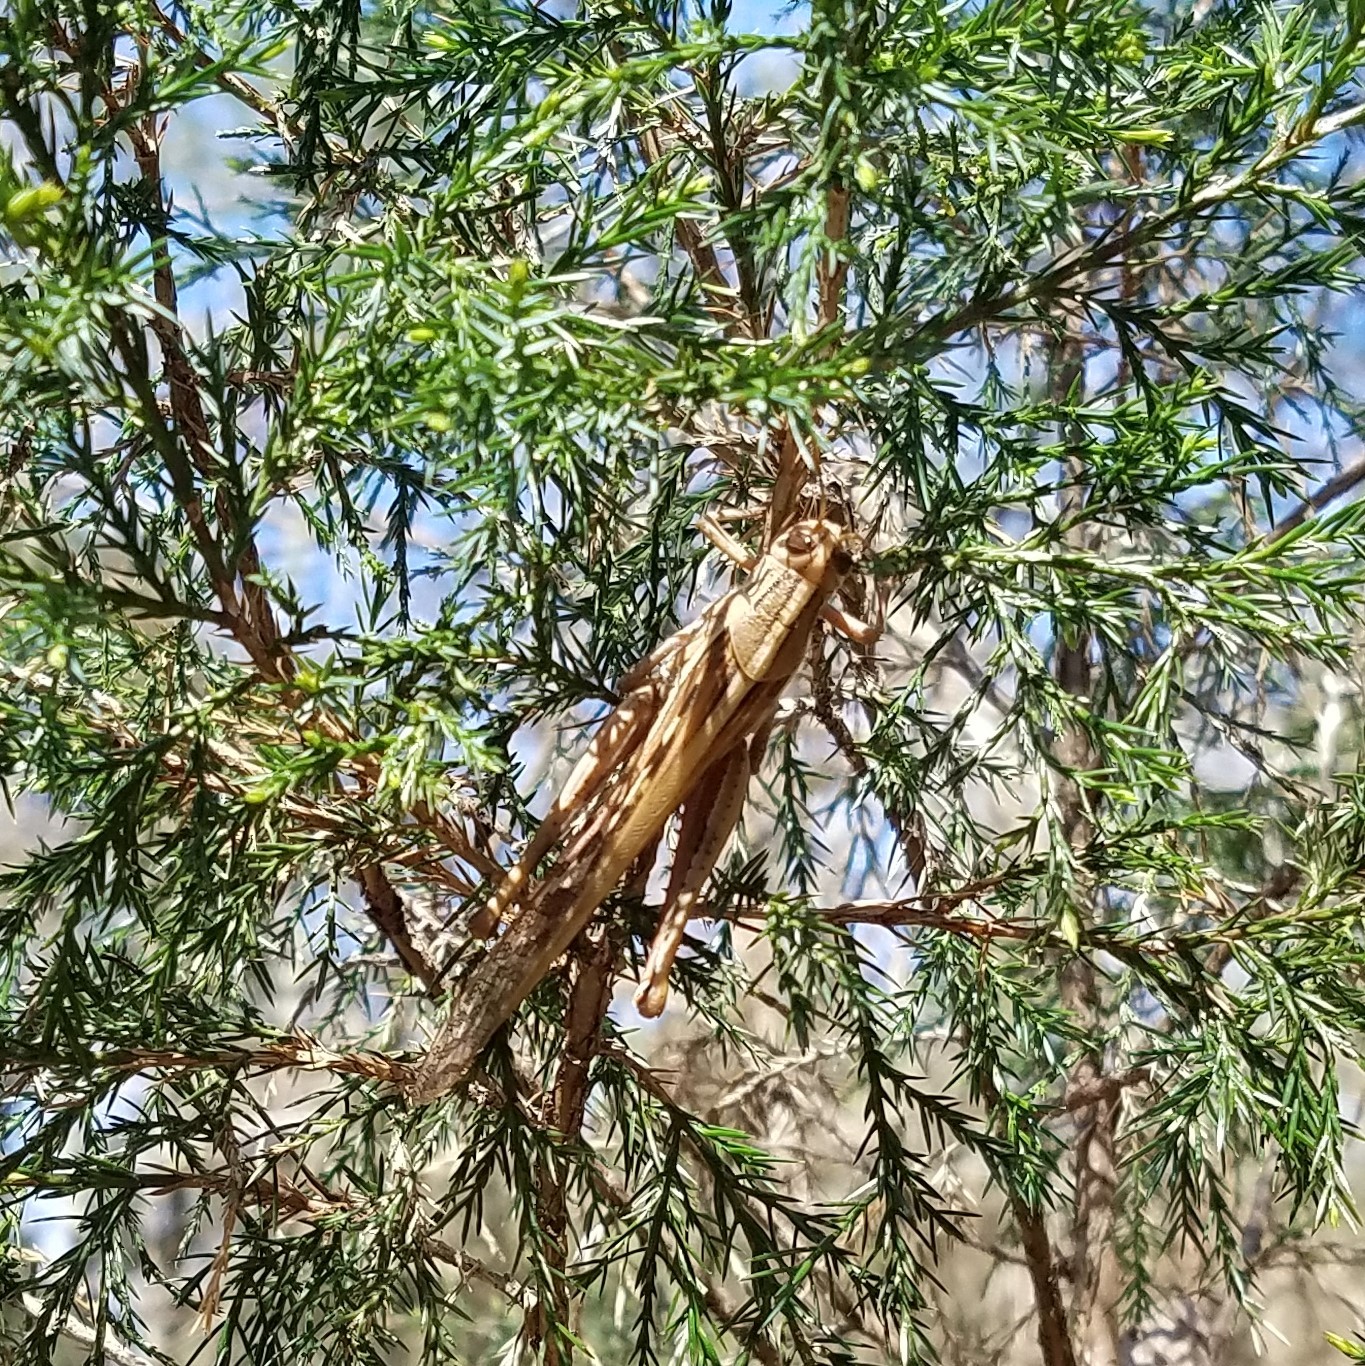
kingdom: Animalia
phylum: Arthropoda
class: Insecta
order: Orthoptera
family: Acrididae
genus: Schistocerca
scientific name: Schistocerca americana
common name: American bird locust
